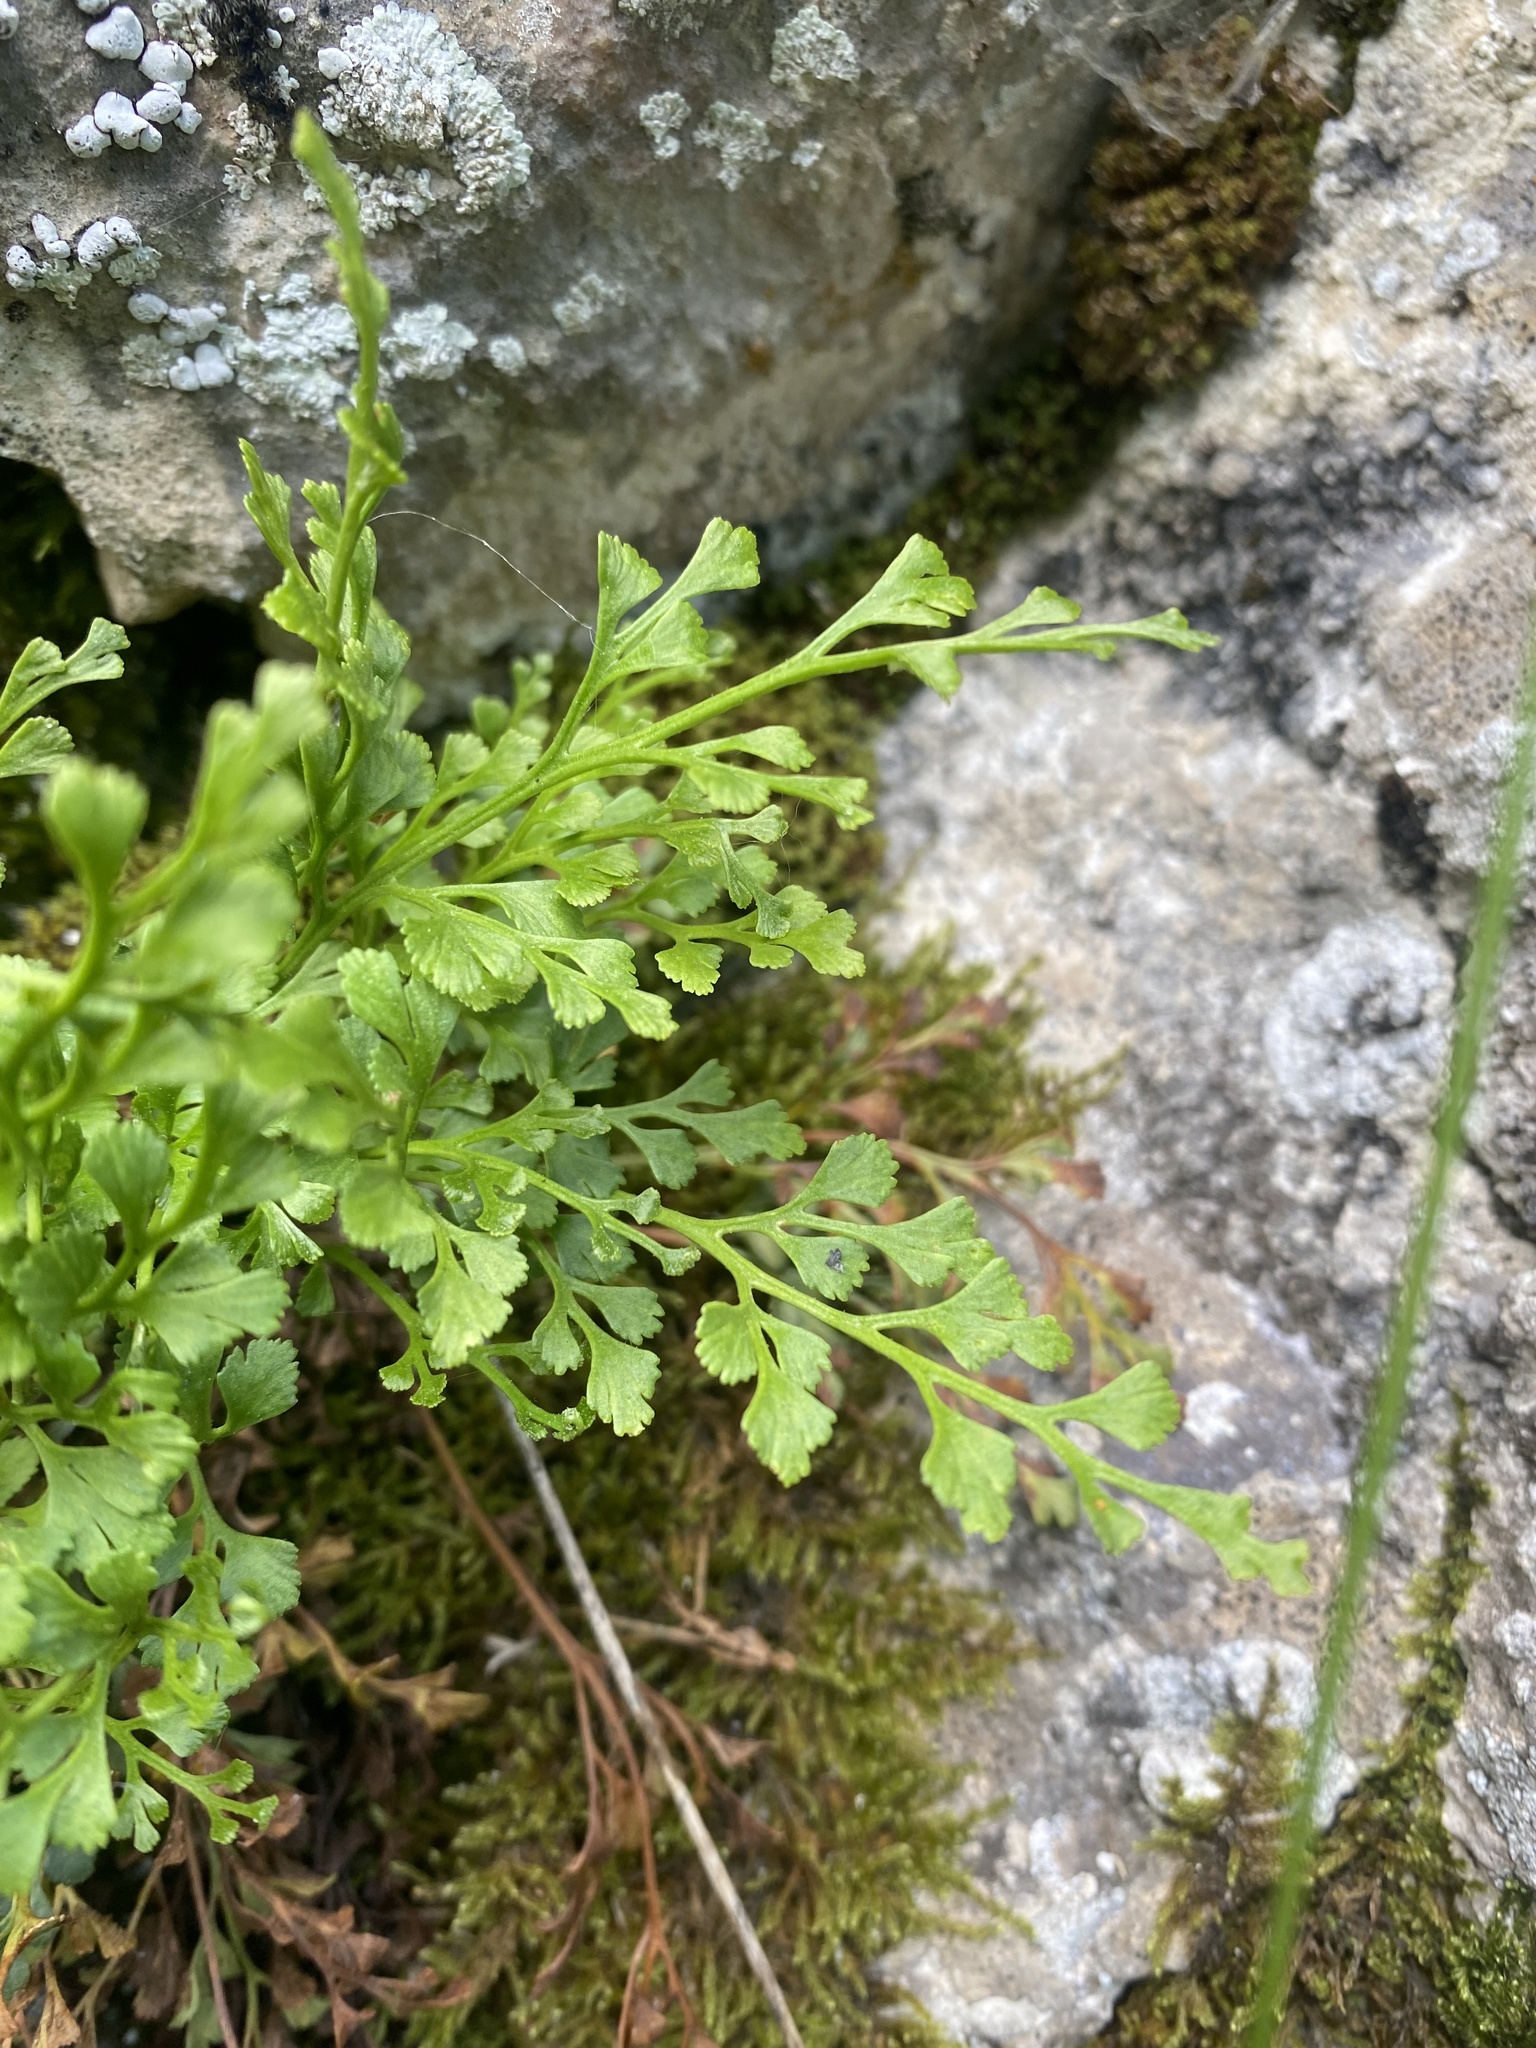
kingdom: Plantae
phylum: Tracheophyta
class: Polypodiopsida
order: Polypodiales
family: Aspleniaceae
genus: Asplenium
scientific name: Asplenium ruta-muraria
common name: Wall-rue
